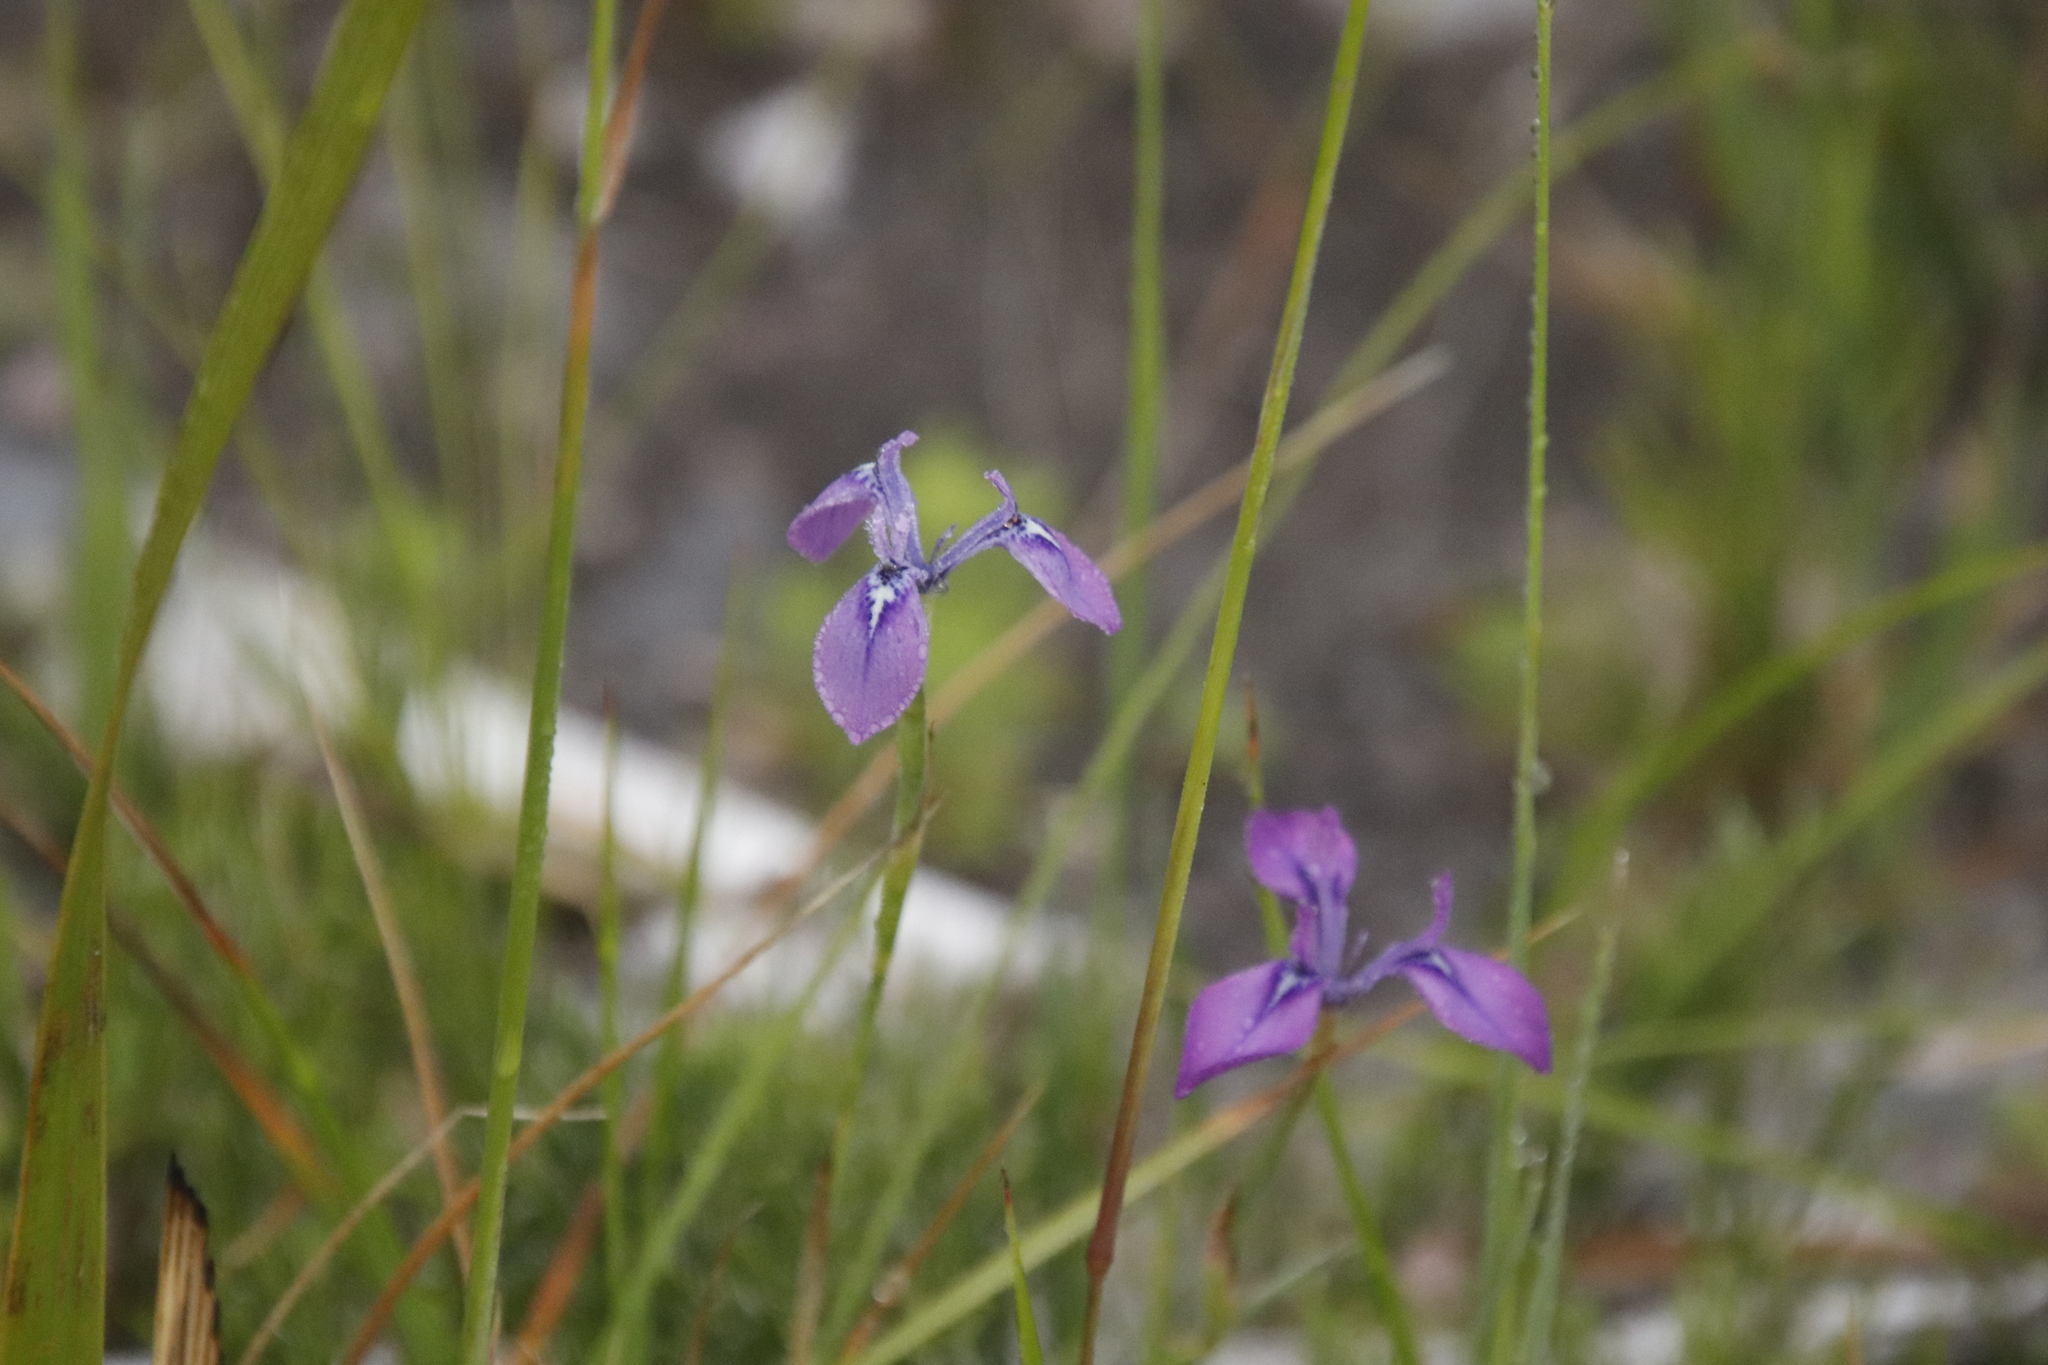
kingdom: Plantae
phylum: Tracheophyta
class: Liliopsida
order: Asparagales
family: Iridaceae
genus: Moraea
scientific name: Moraea tripetala
